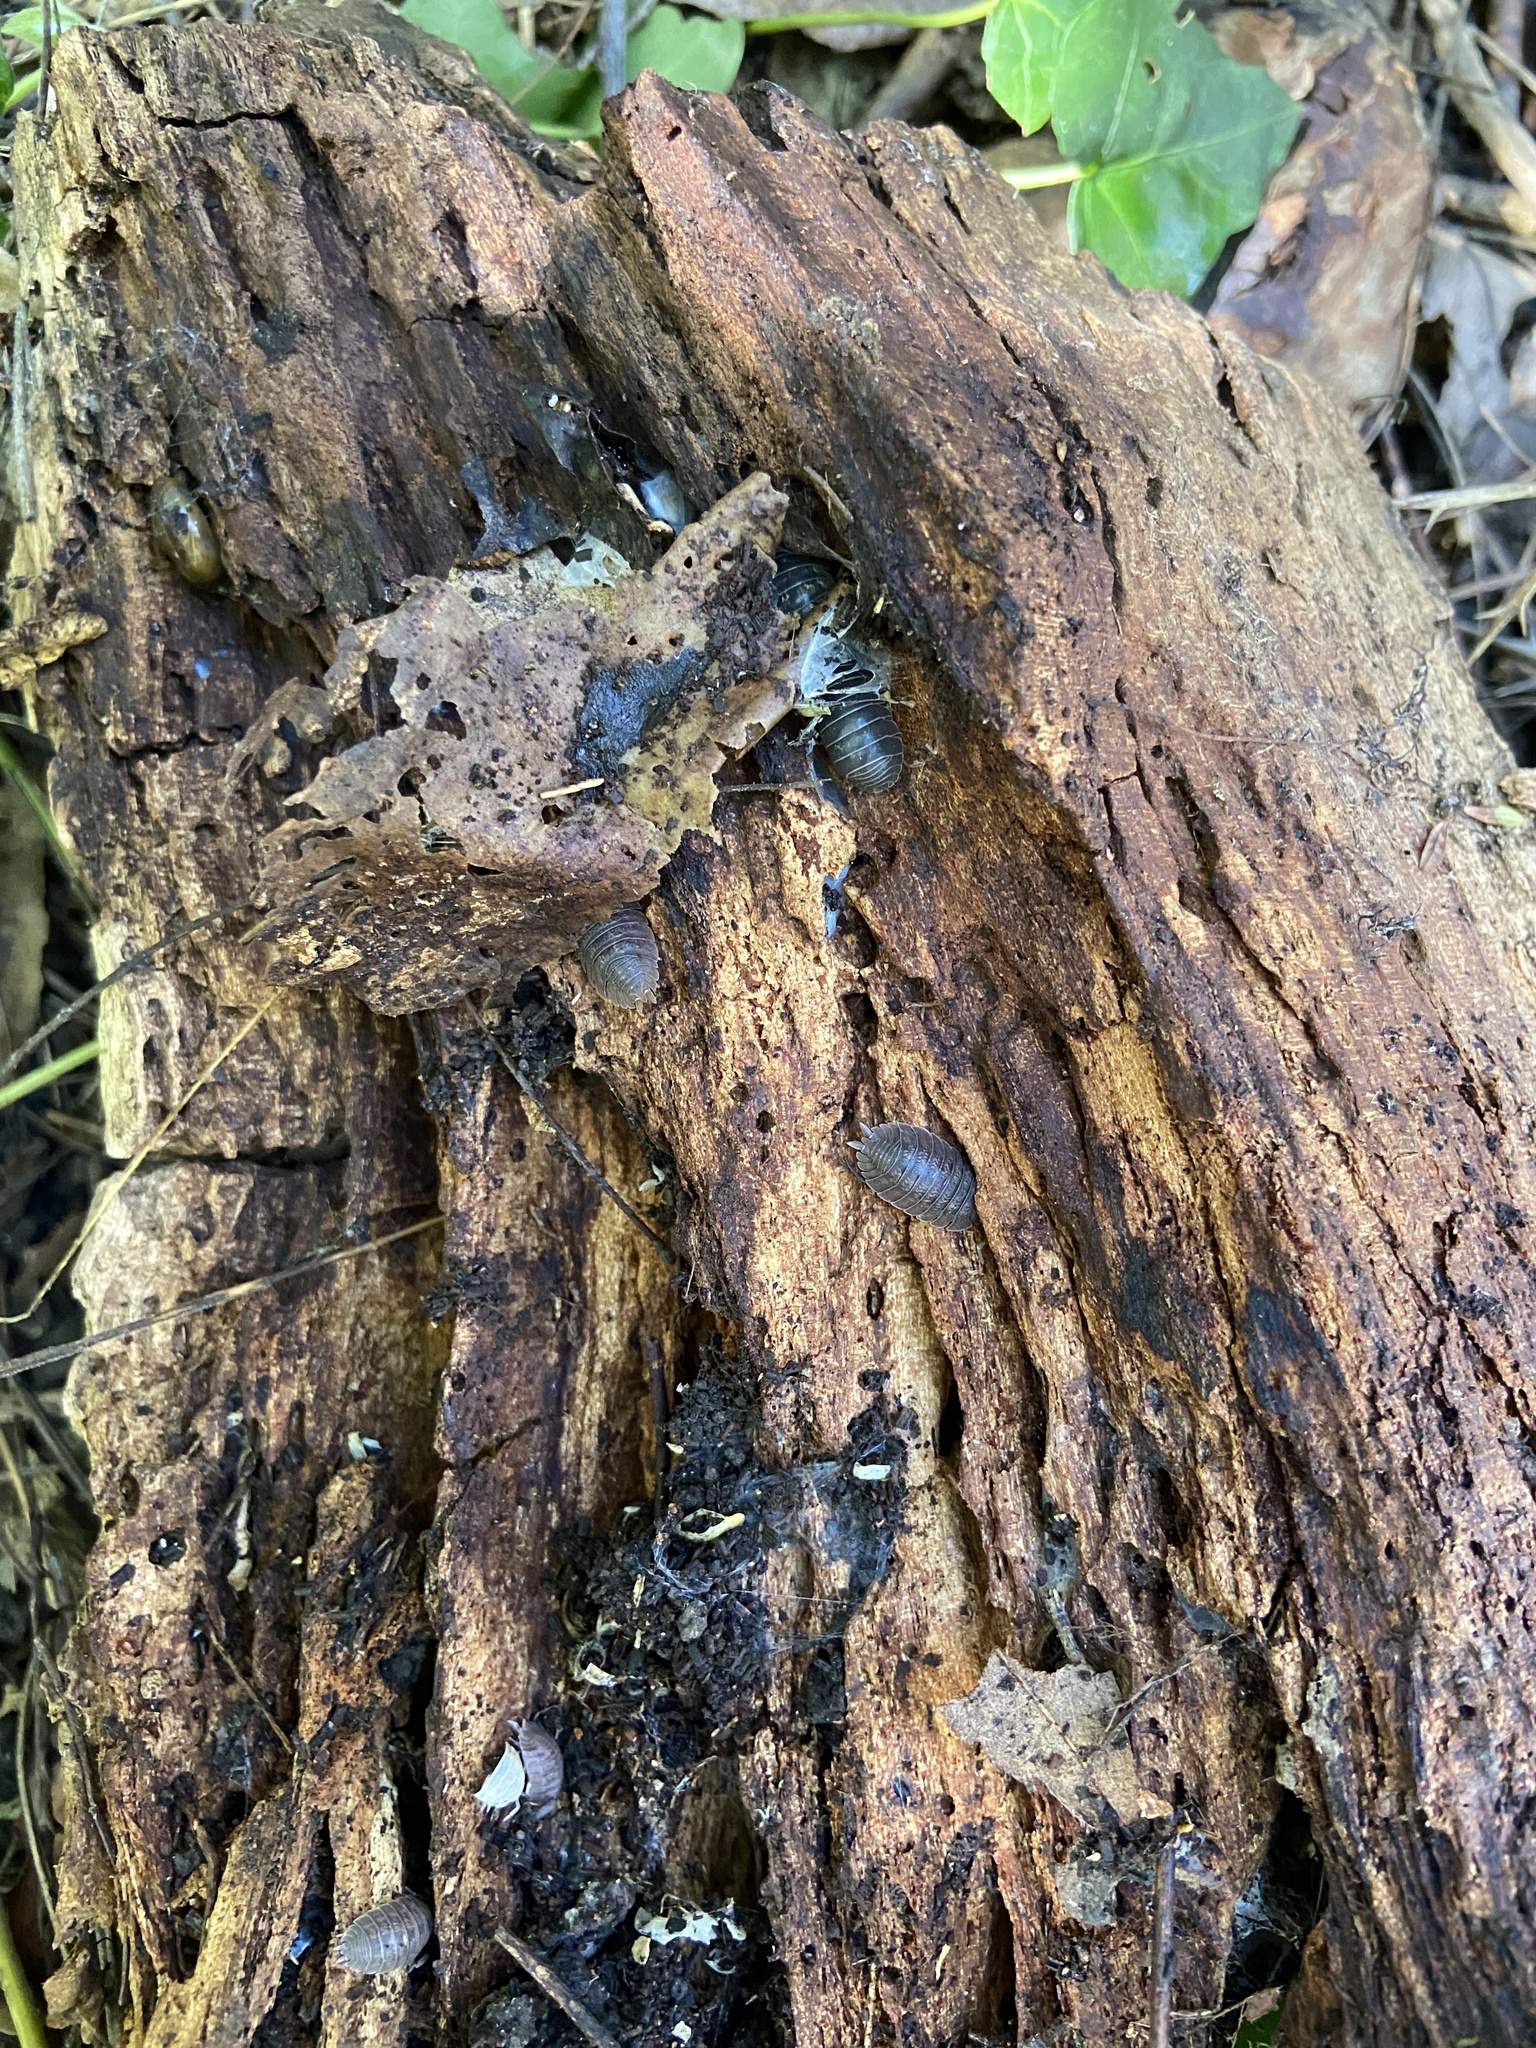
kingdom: Animalia
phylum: Arthropoda
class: Malacostraca
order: Isopoda
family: Armadillidiidae
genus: Armadillidium
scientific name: Armadillidium vulgare
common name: Common pill woodlouse
